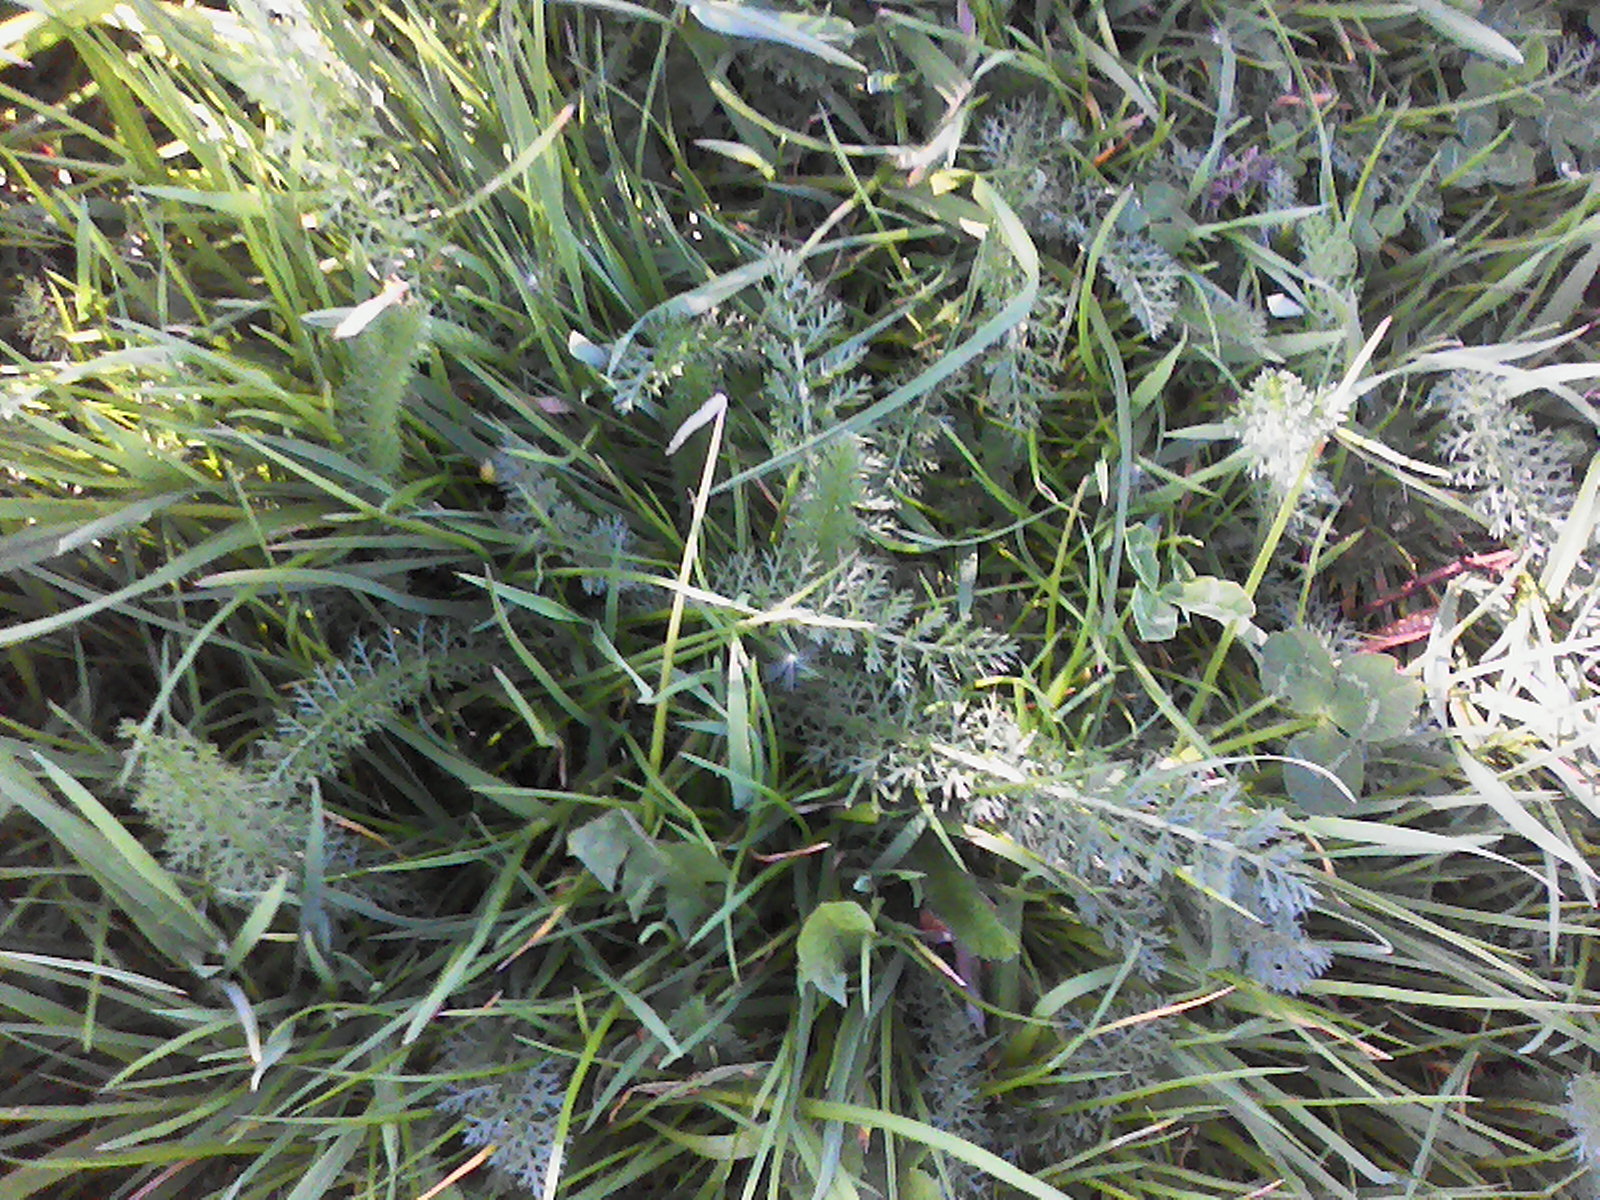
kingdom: Plantae
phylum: Tracheophyta
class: Magnoliopsida
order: Asterales
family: Asteraceae
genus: Achillea
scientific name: Achillea millefolium
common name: Yarrow
